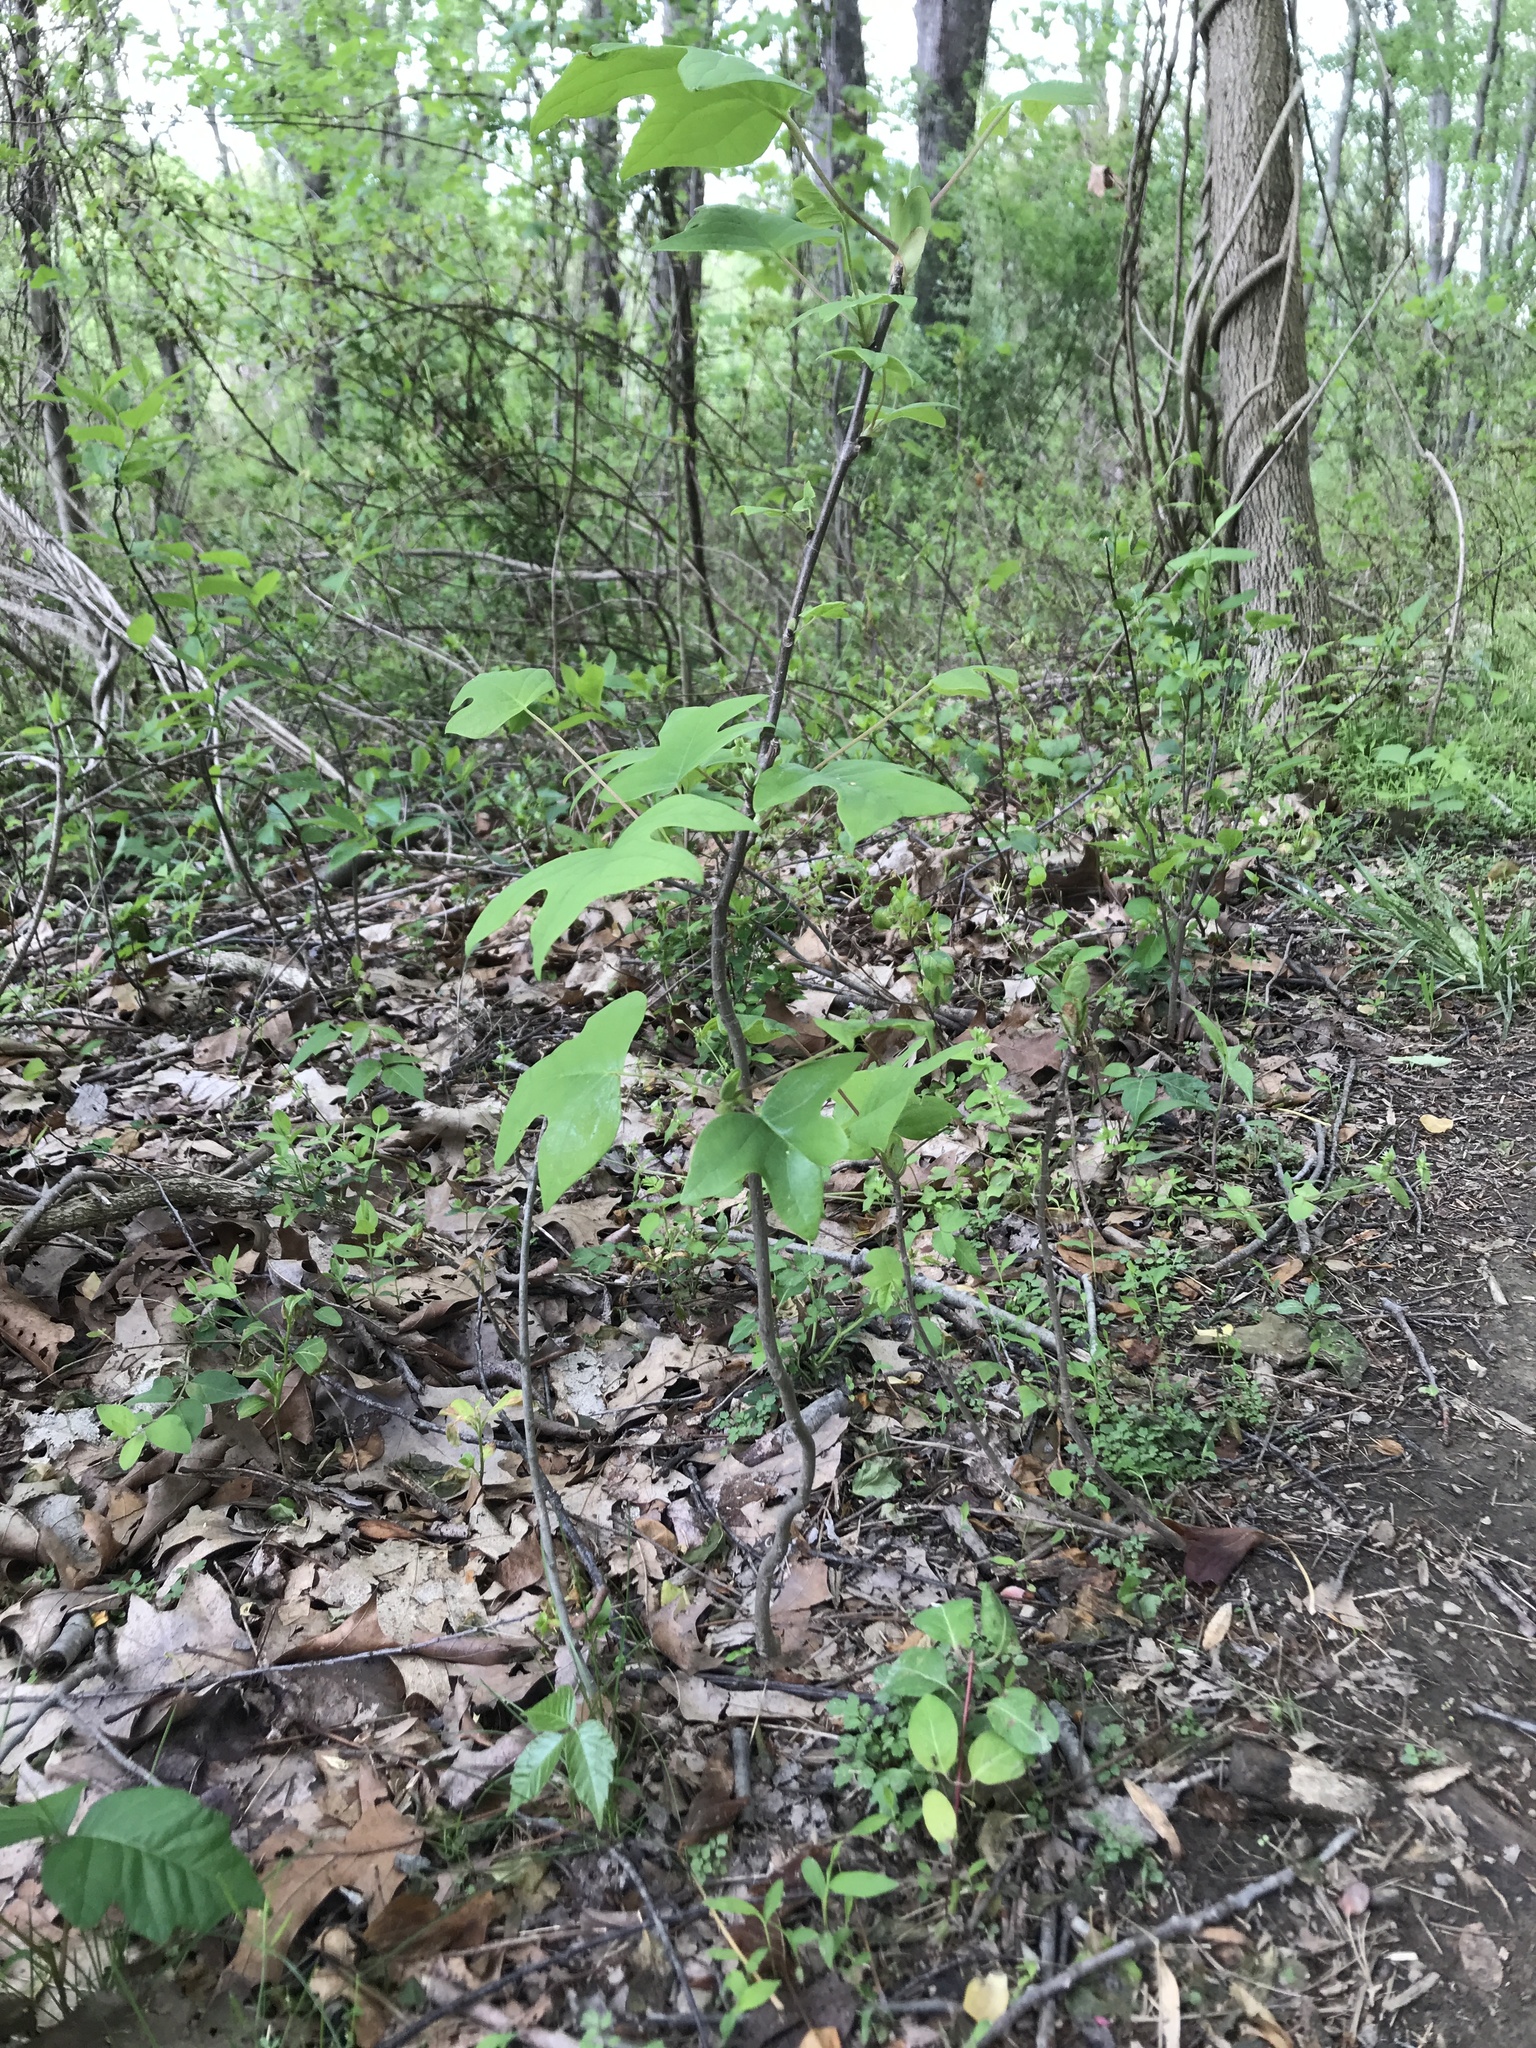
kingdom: Plantae
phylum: Tracheophyta
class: Magnoliopsida
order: Magnoliales
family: Magnoliaceae
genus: Liriodendron
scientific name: Liriodendron tulipifera
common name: Tulip tree
